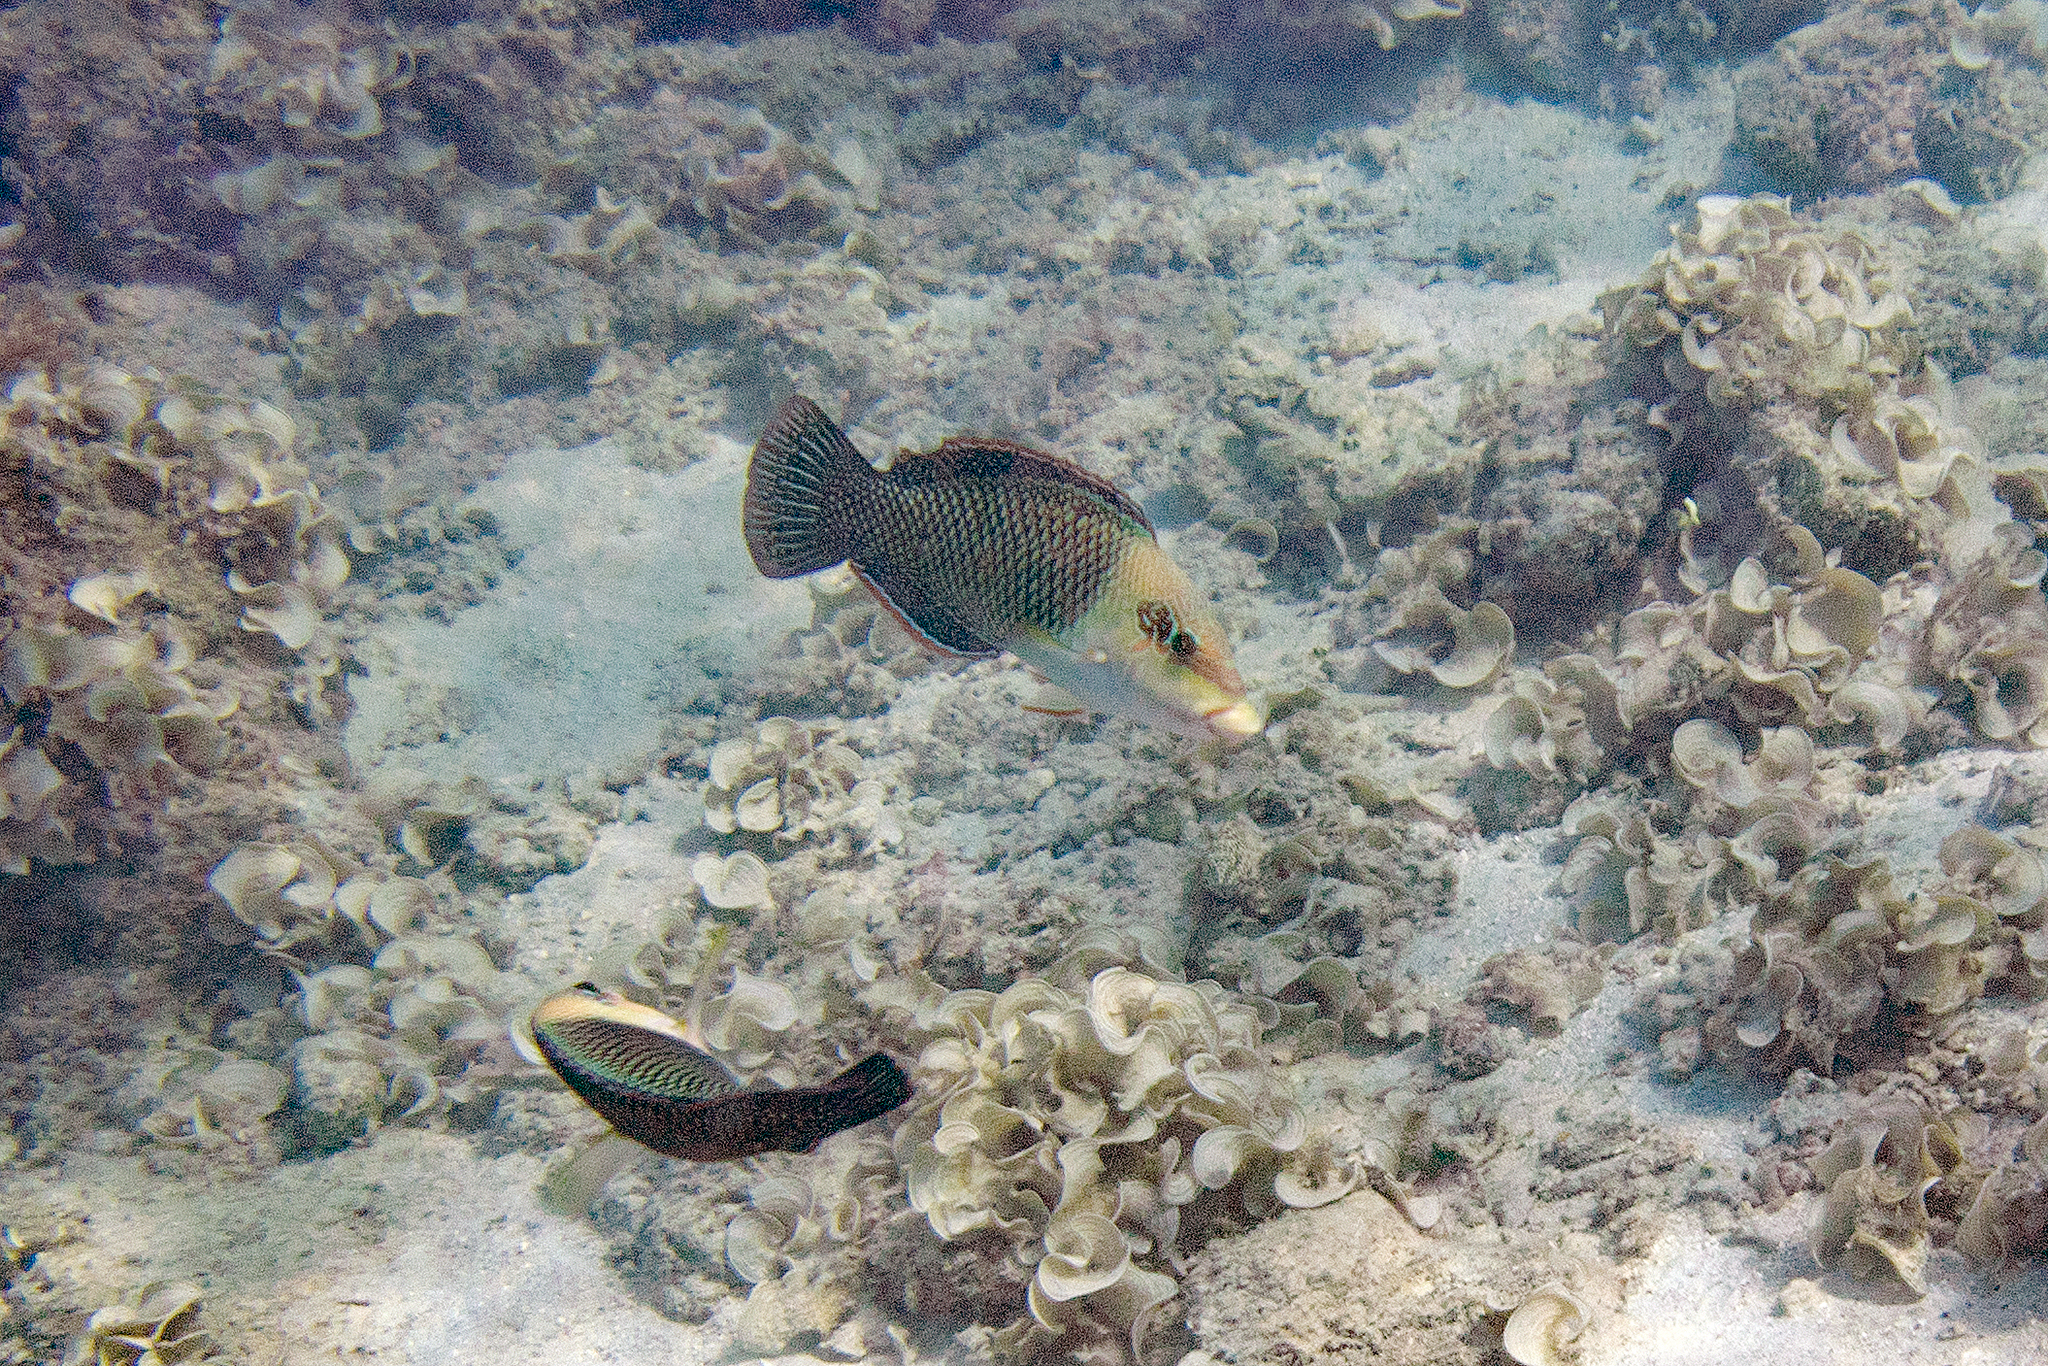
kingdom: Animalia
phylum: Chordata
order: Perciformes
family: Labridae
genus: Hemigymnus
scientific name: Hemigymnus melapterus
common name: Blackeye thicklip
